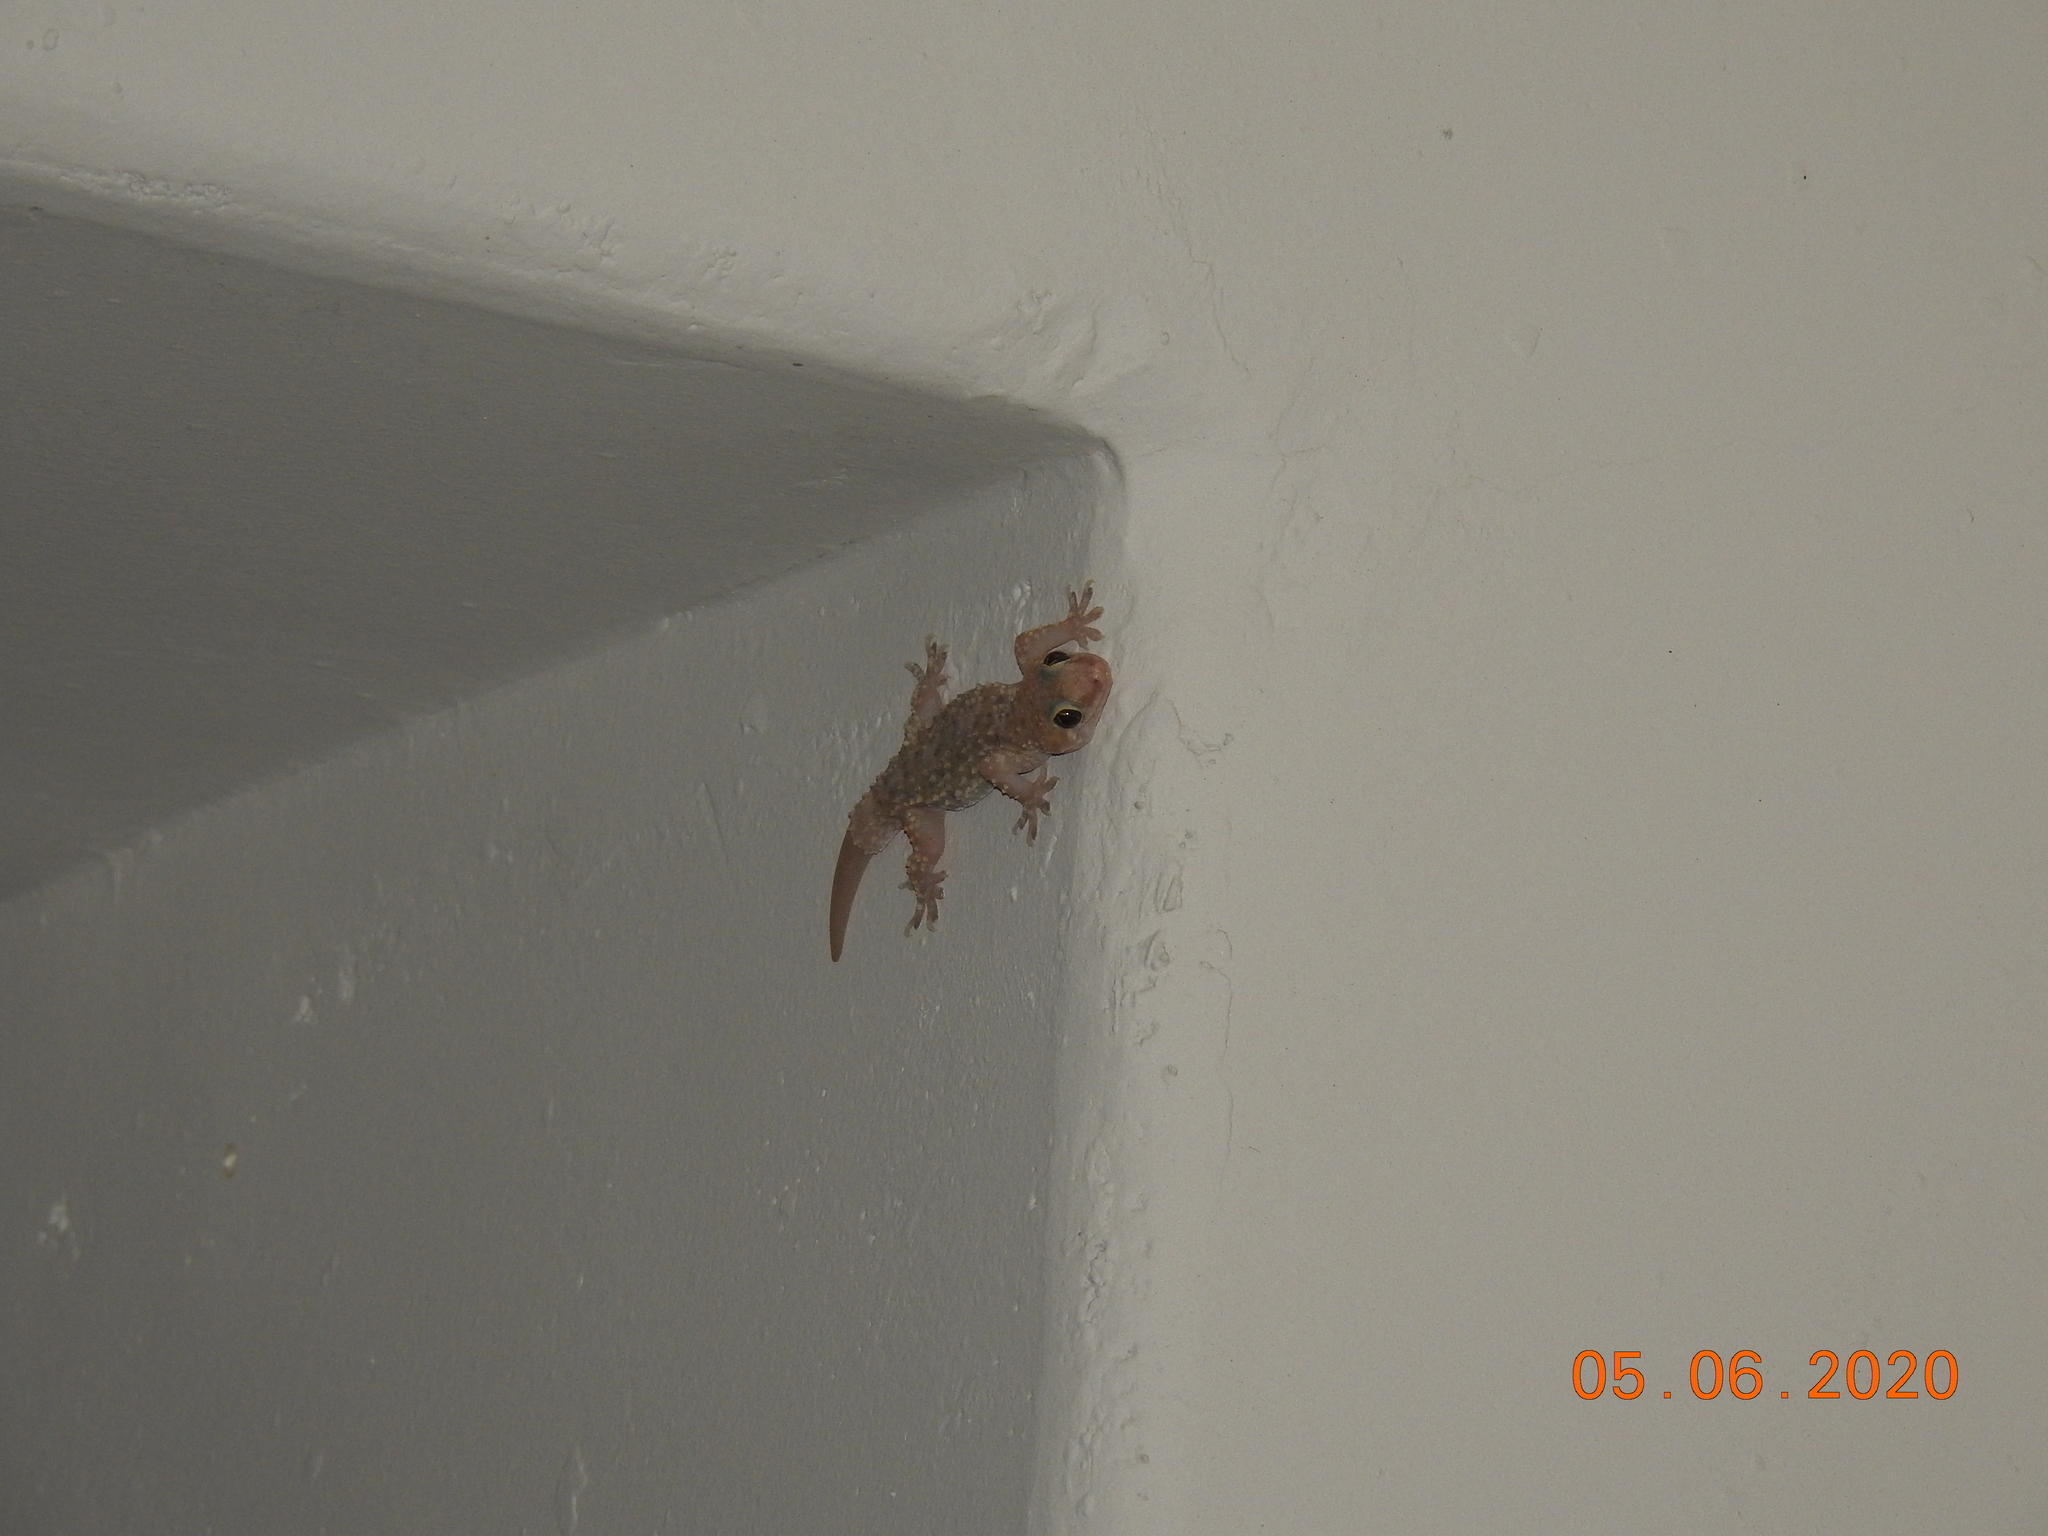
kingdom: Animalia
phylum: Chordata
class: Squamata
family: Gekkonidae
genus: Hemidactylus
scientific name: Hemidactylus turcicus
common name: Turkish gecko
